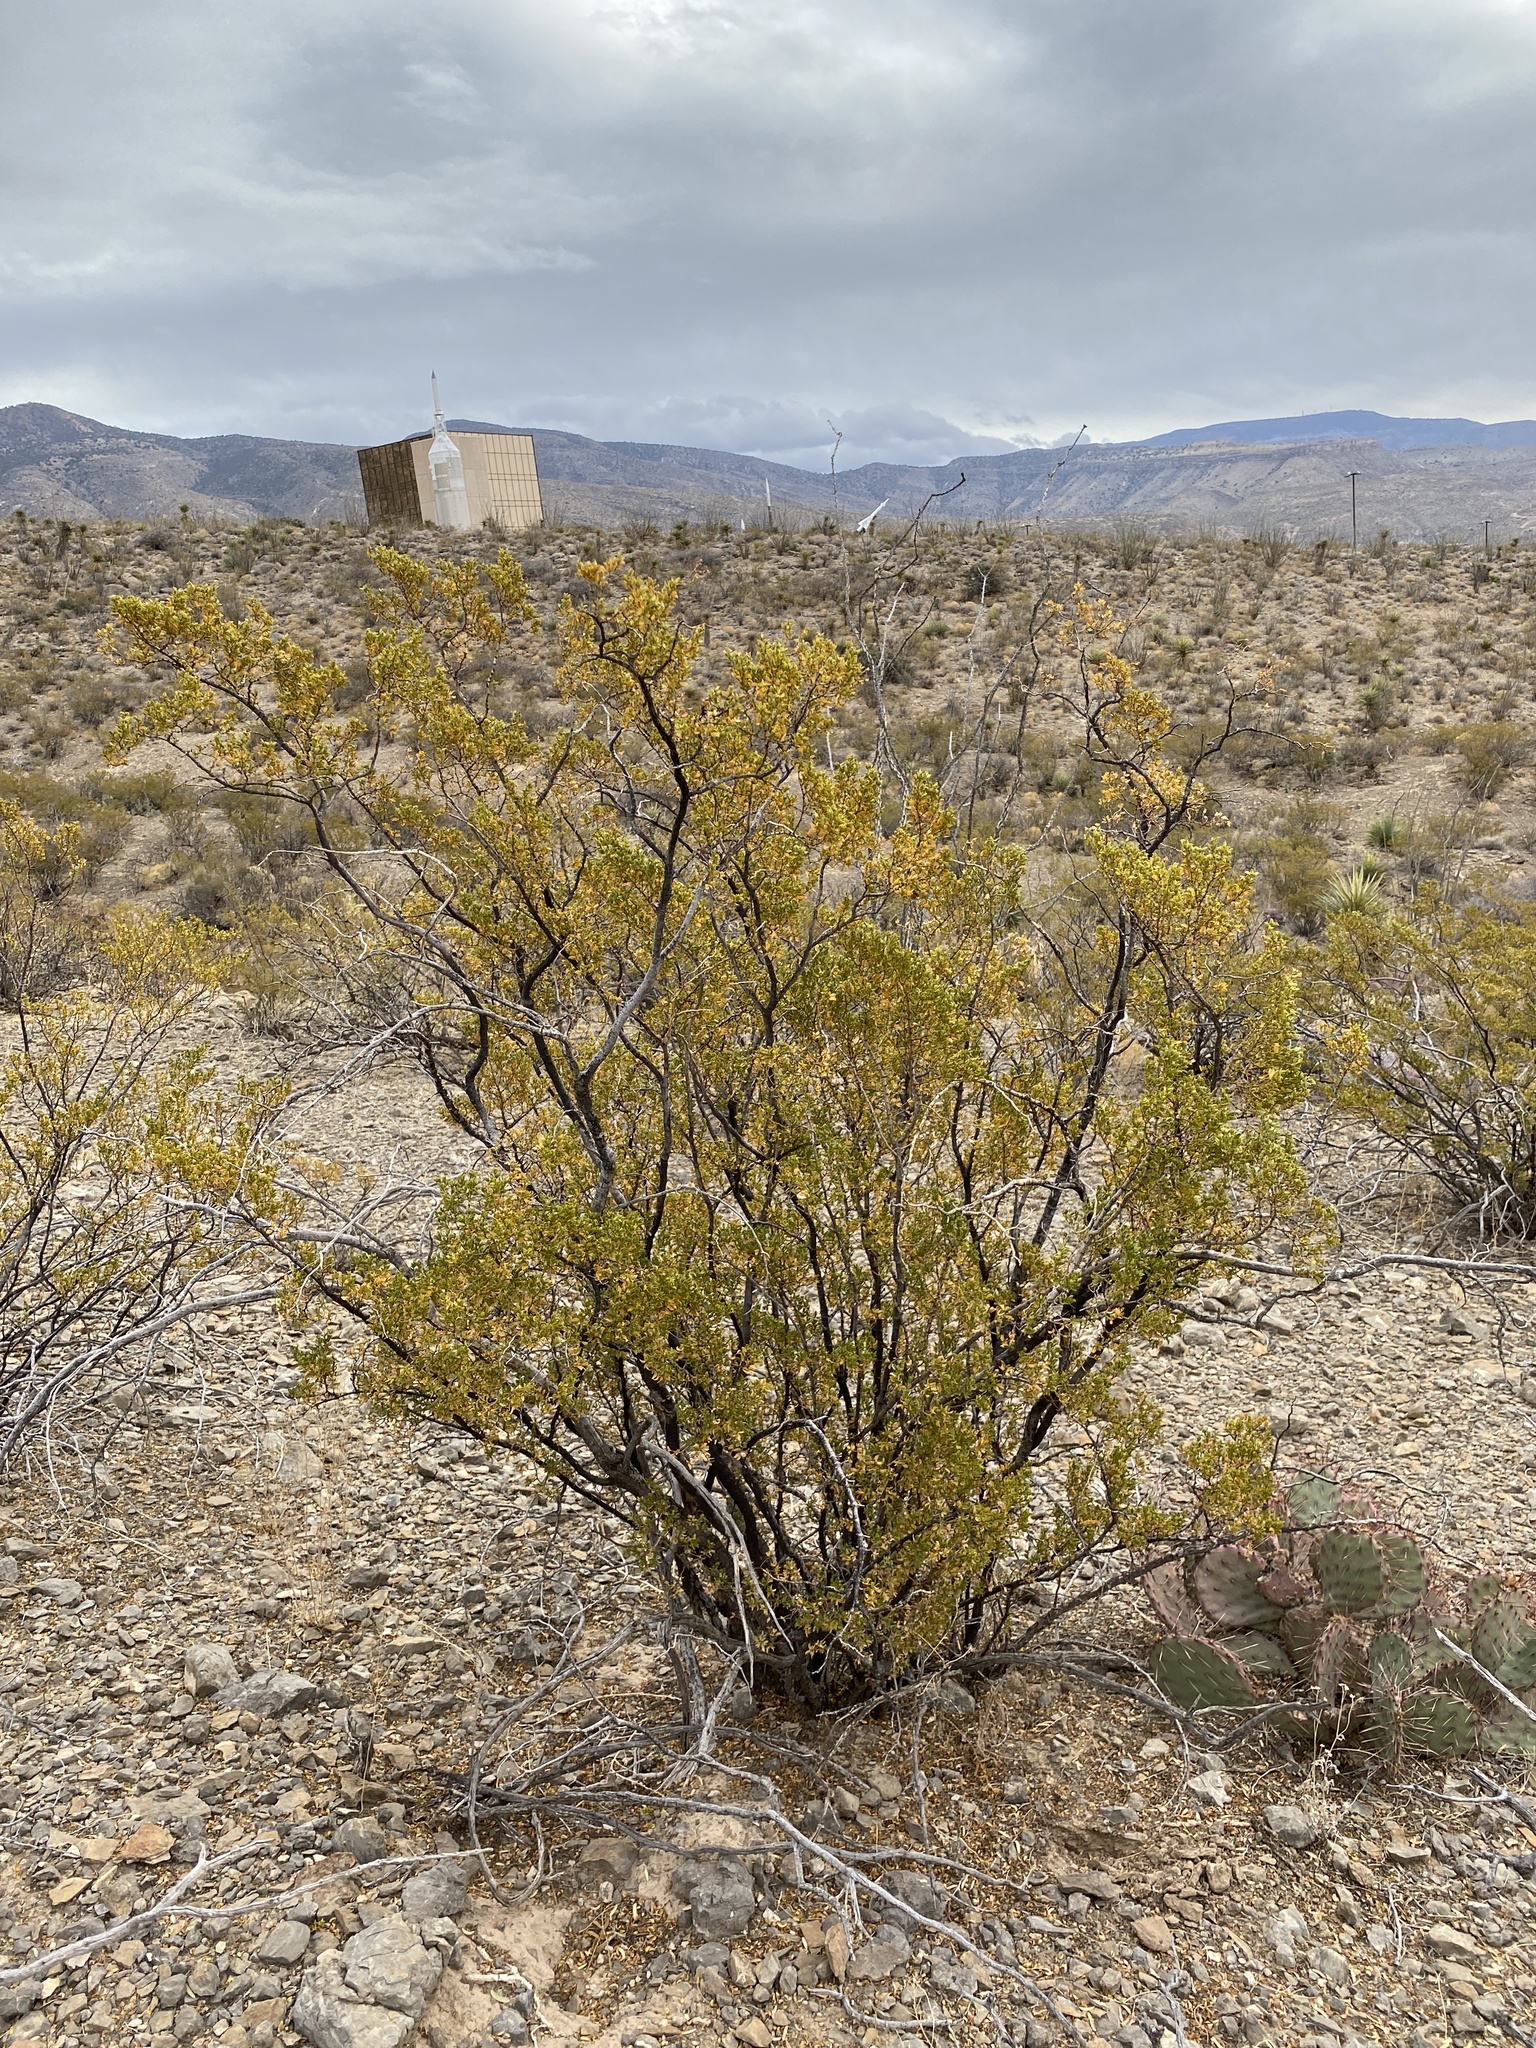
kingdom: Plantae
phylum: Tracheophyta
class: Magnoliopsida
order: Zygophyllales
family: Zygophyllaceae
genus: Larrea
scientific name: Larrea tridentata
